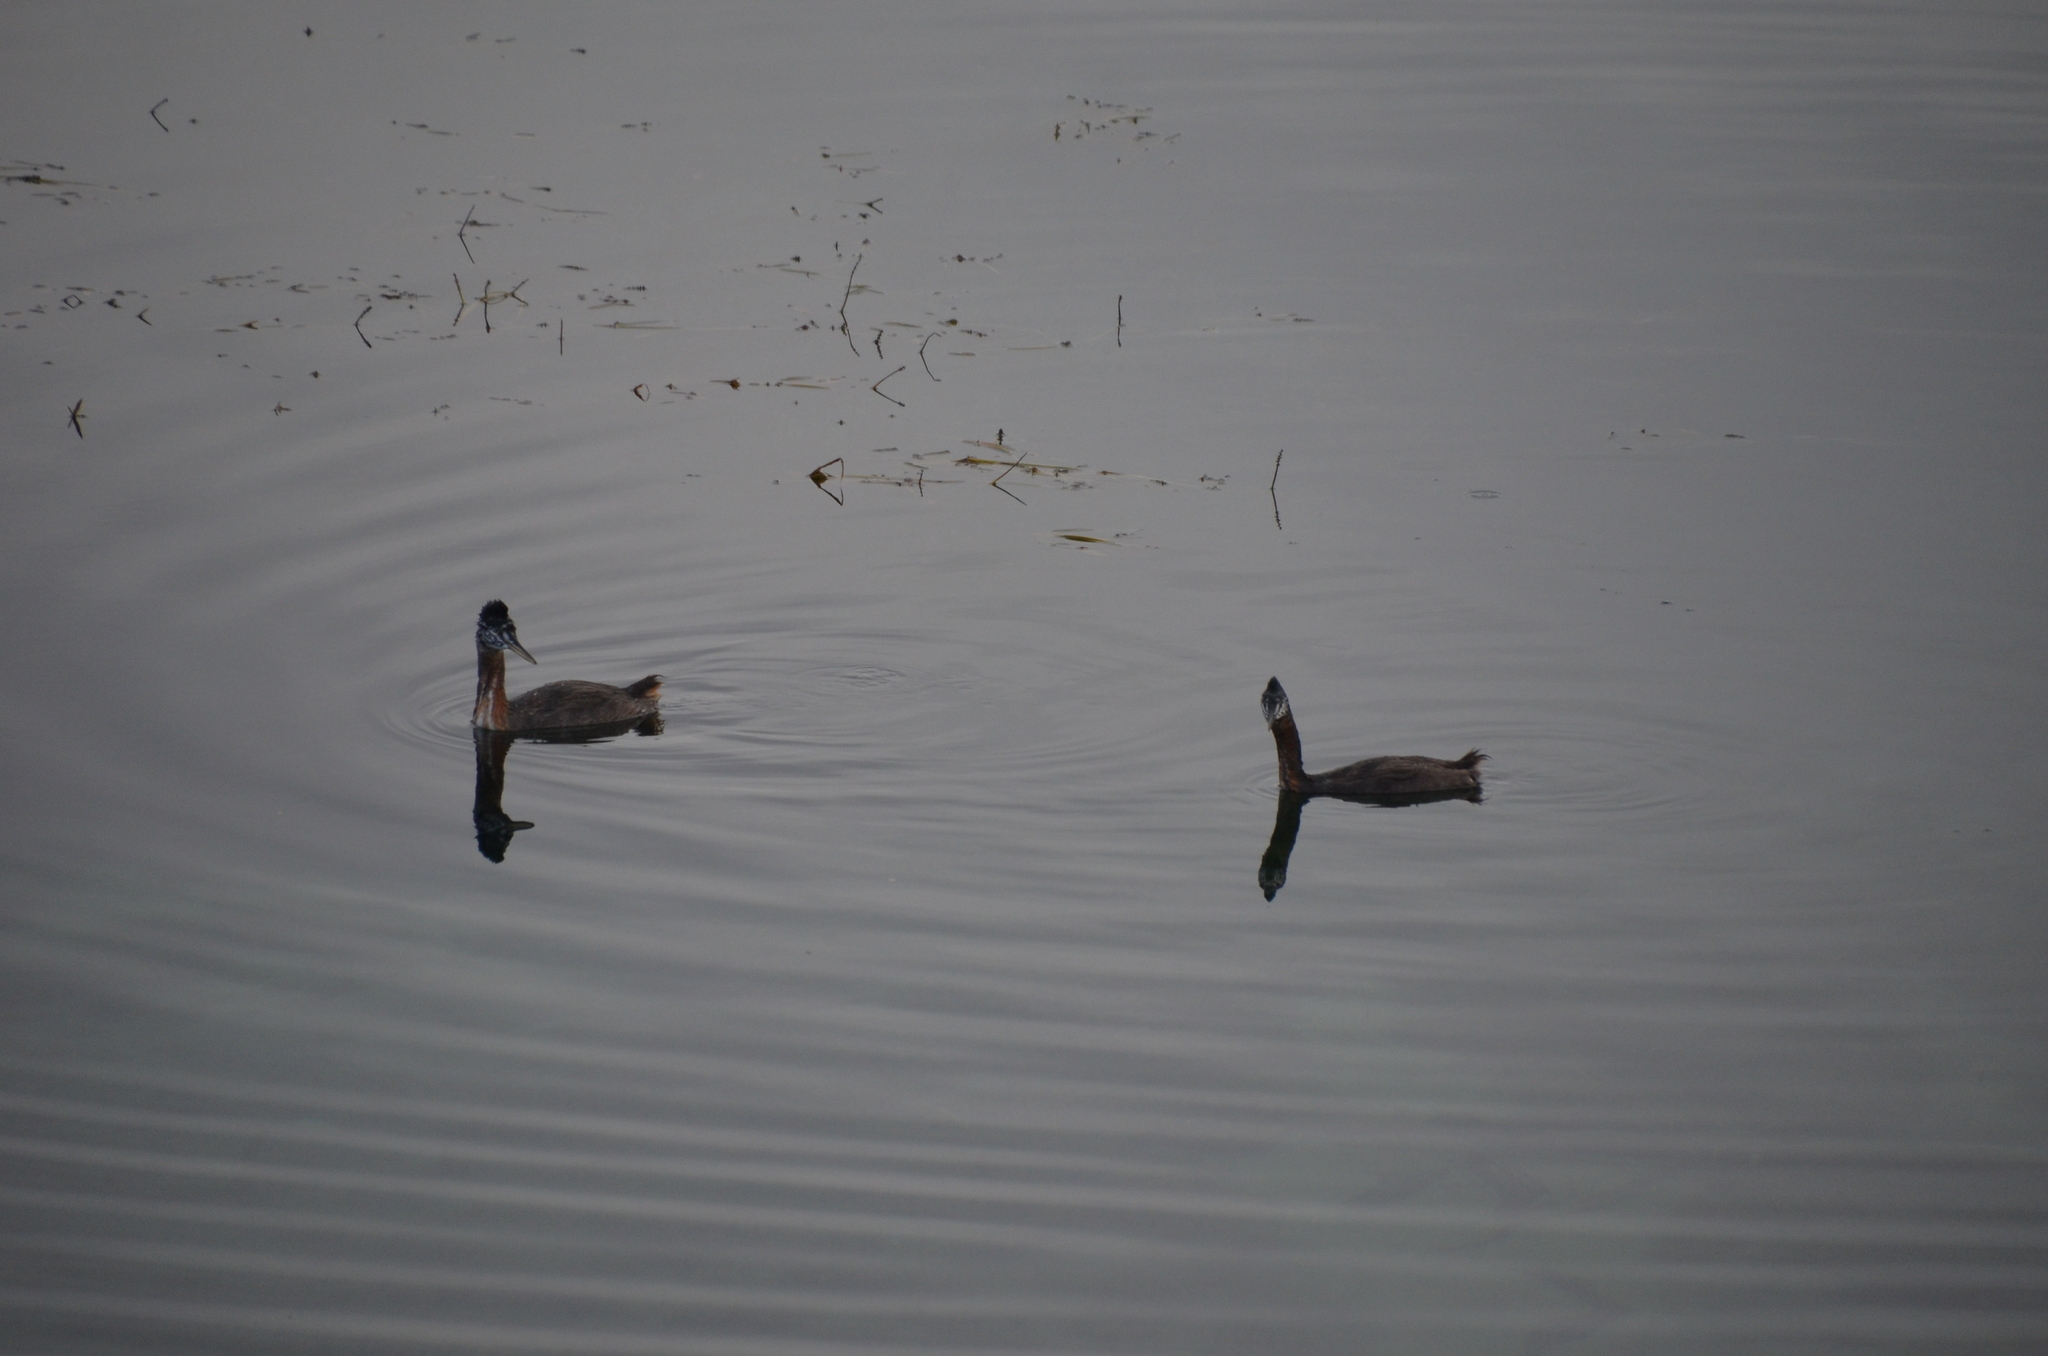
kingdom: Animalia
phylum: Chordata
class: Aves
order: Podicipediformes
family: Podicipedidae
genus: Podiceps
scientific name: Podiceps major
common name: Great grebe
